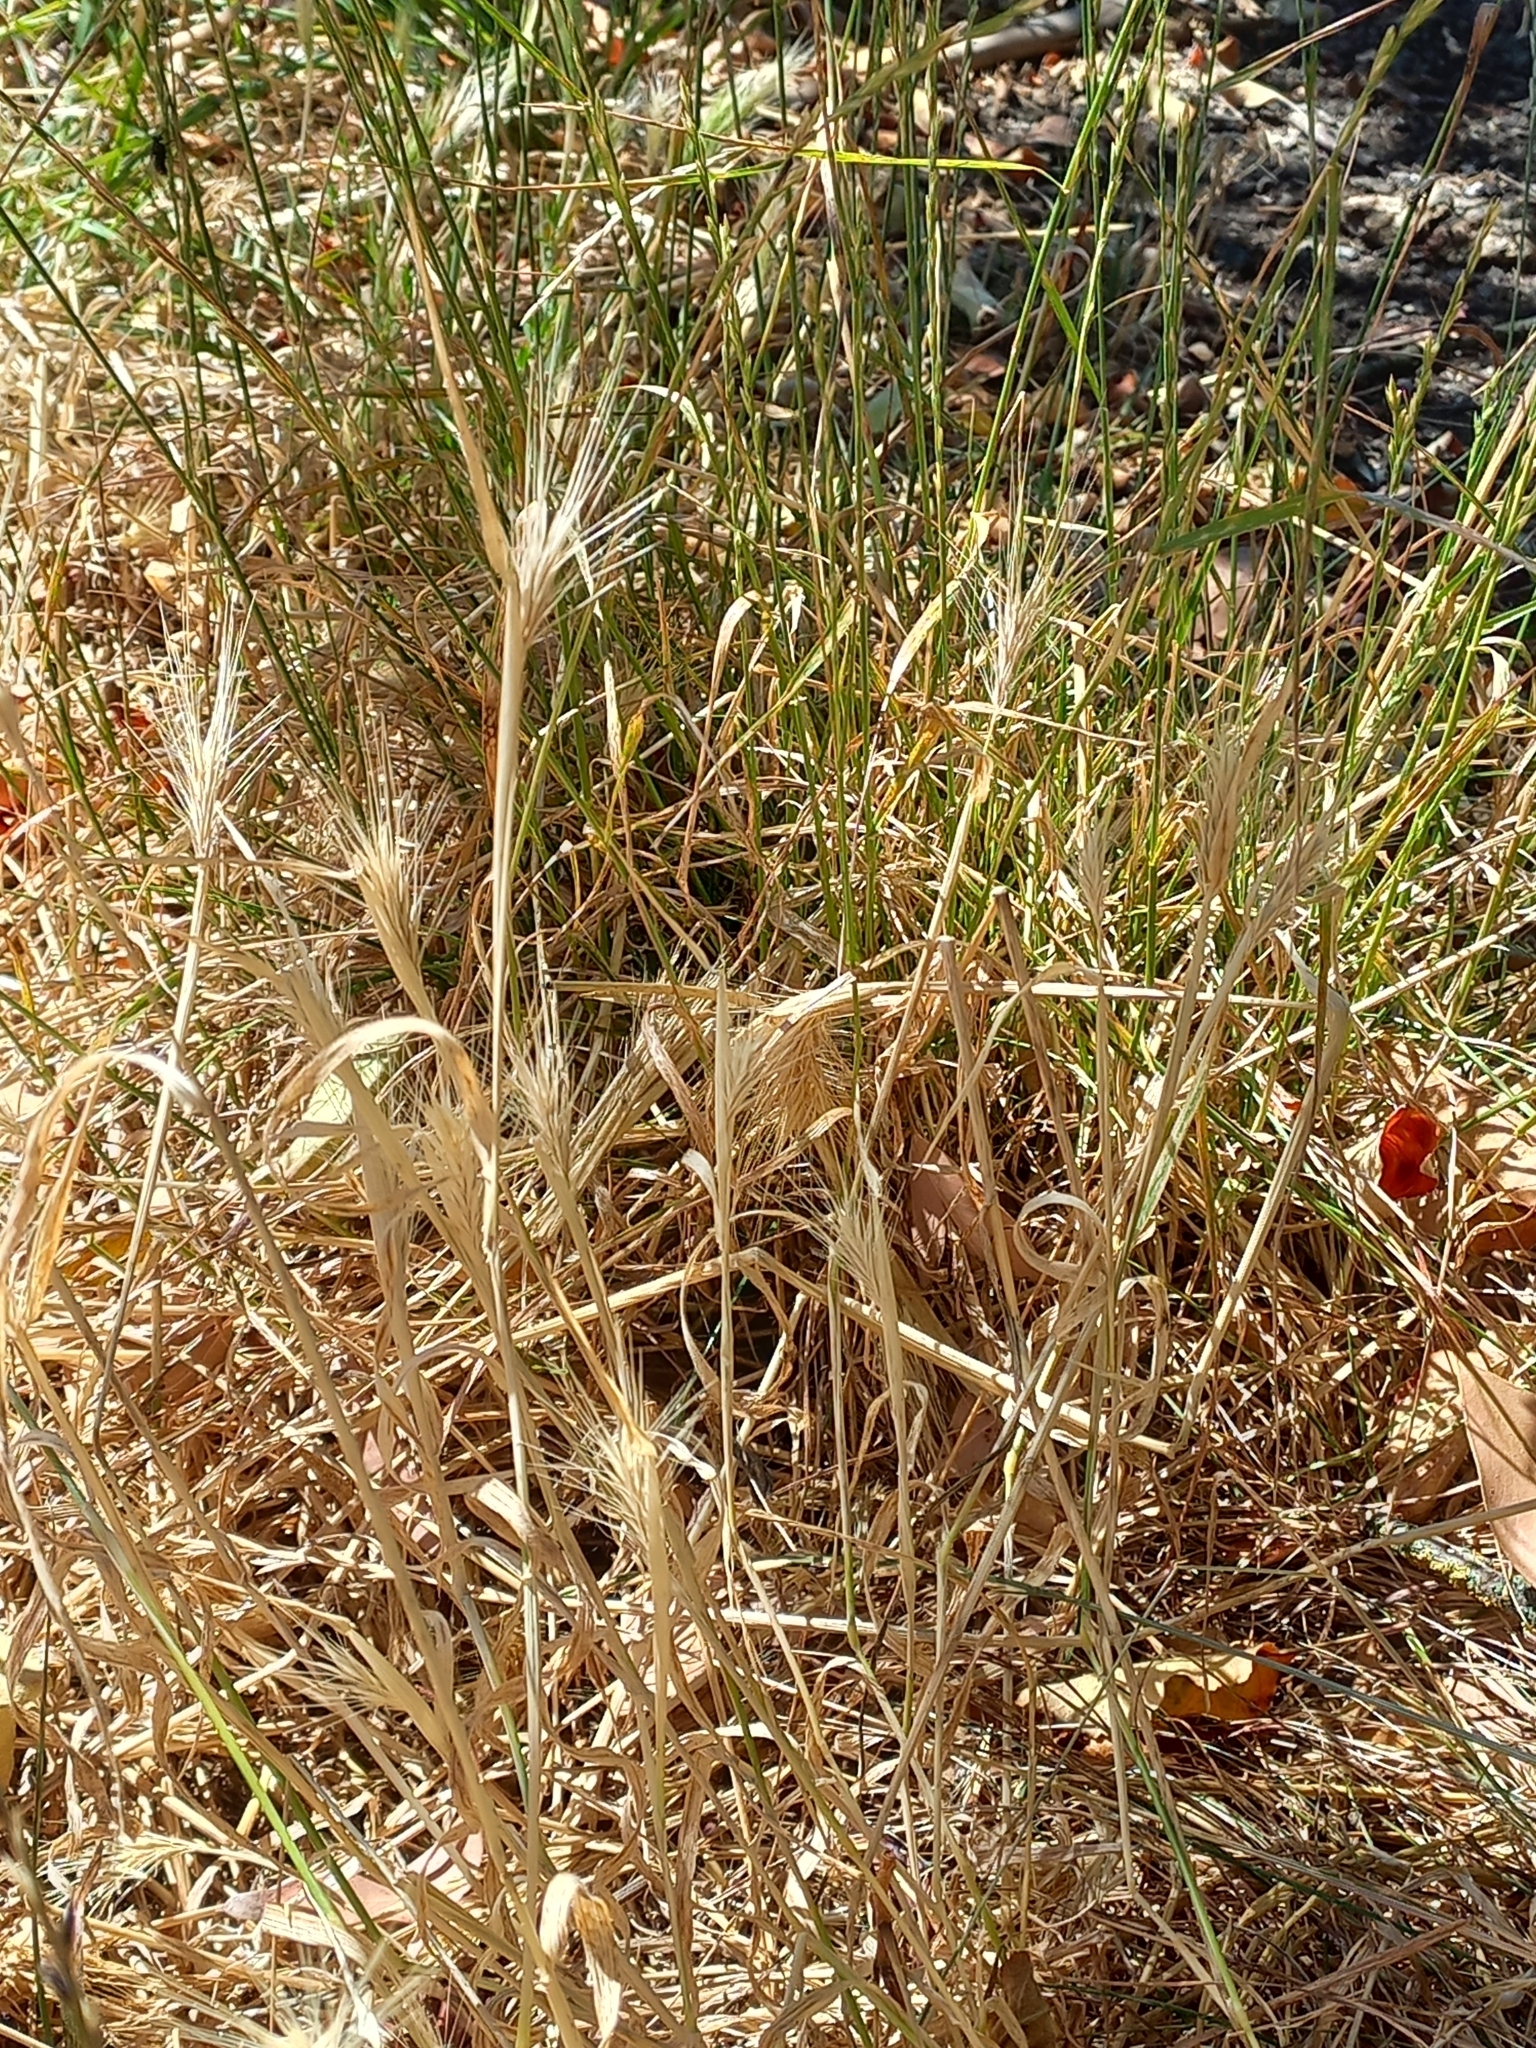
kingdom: Plantae
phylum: Tracheophyta
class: Liliopsida
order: Poales
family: Poaceae
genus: Hordeum
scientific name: Hordeum murinum
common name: Wall barley
